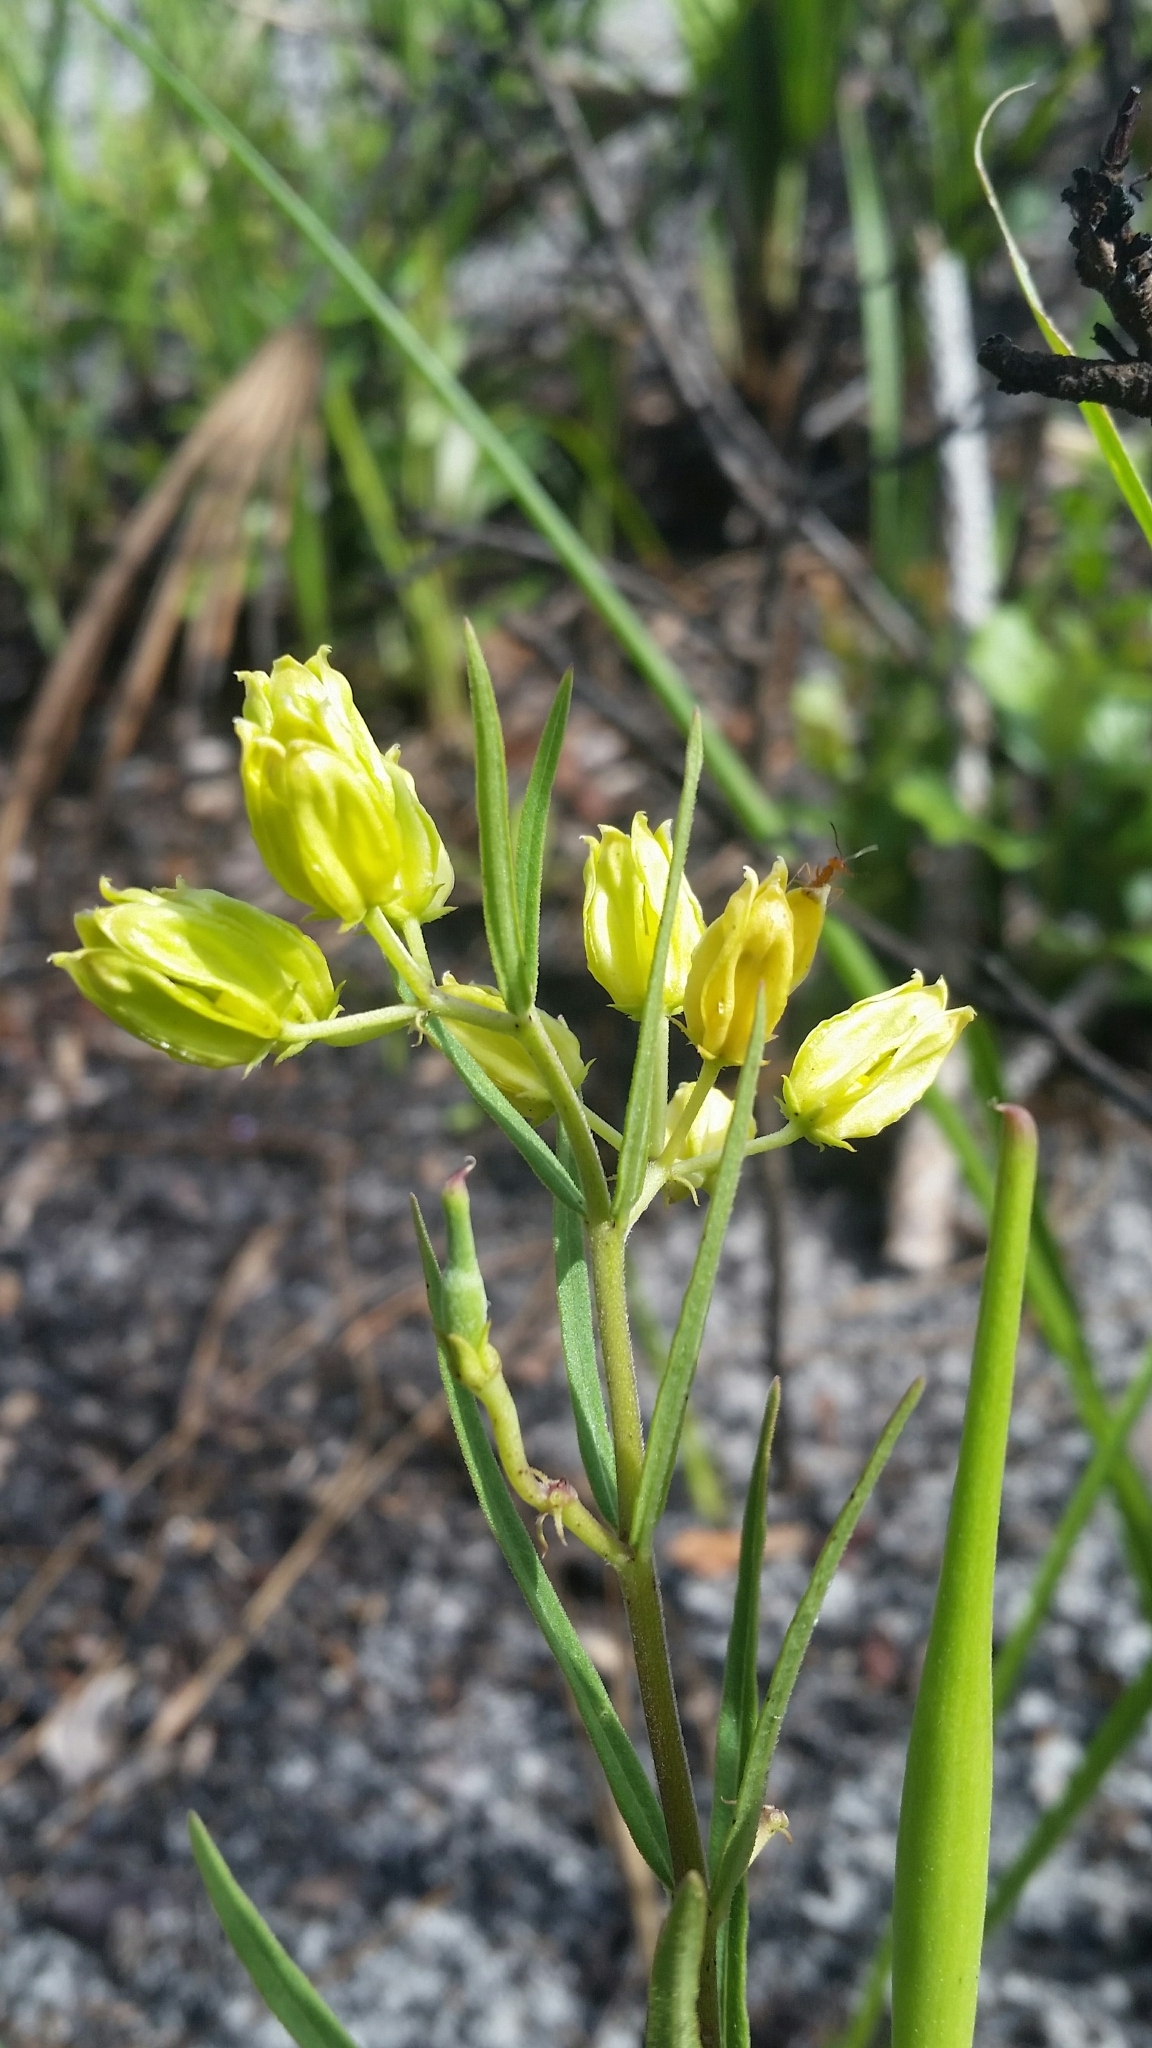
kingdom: Plantae
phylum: Tracheophyta
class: Magnoliopsida
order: Gentianales
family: Apocynaceae
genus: Asclepias
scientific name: Asclepias pedicellata
